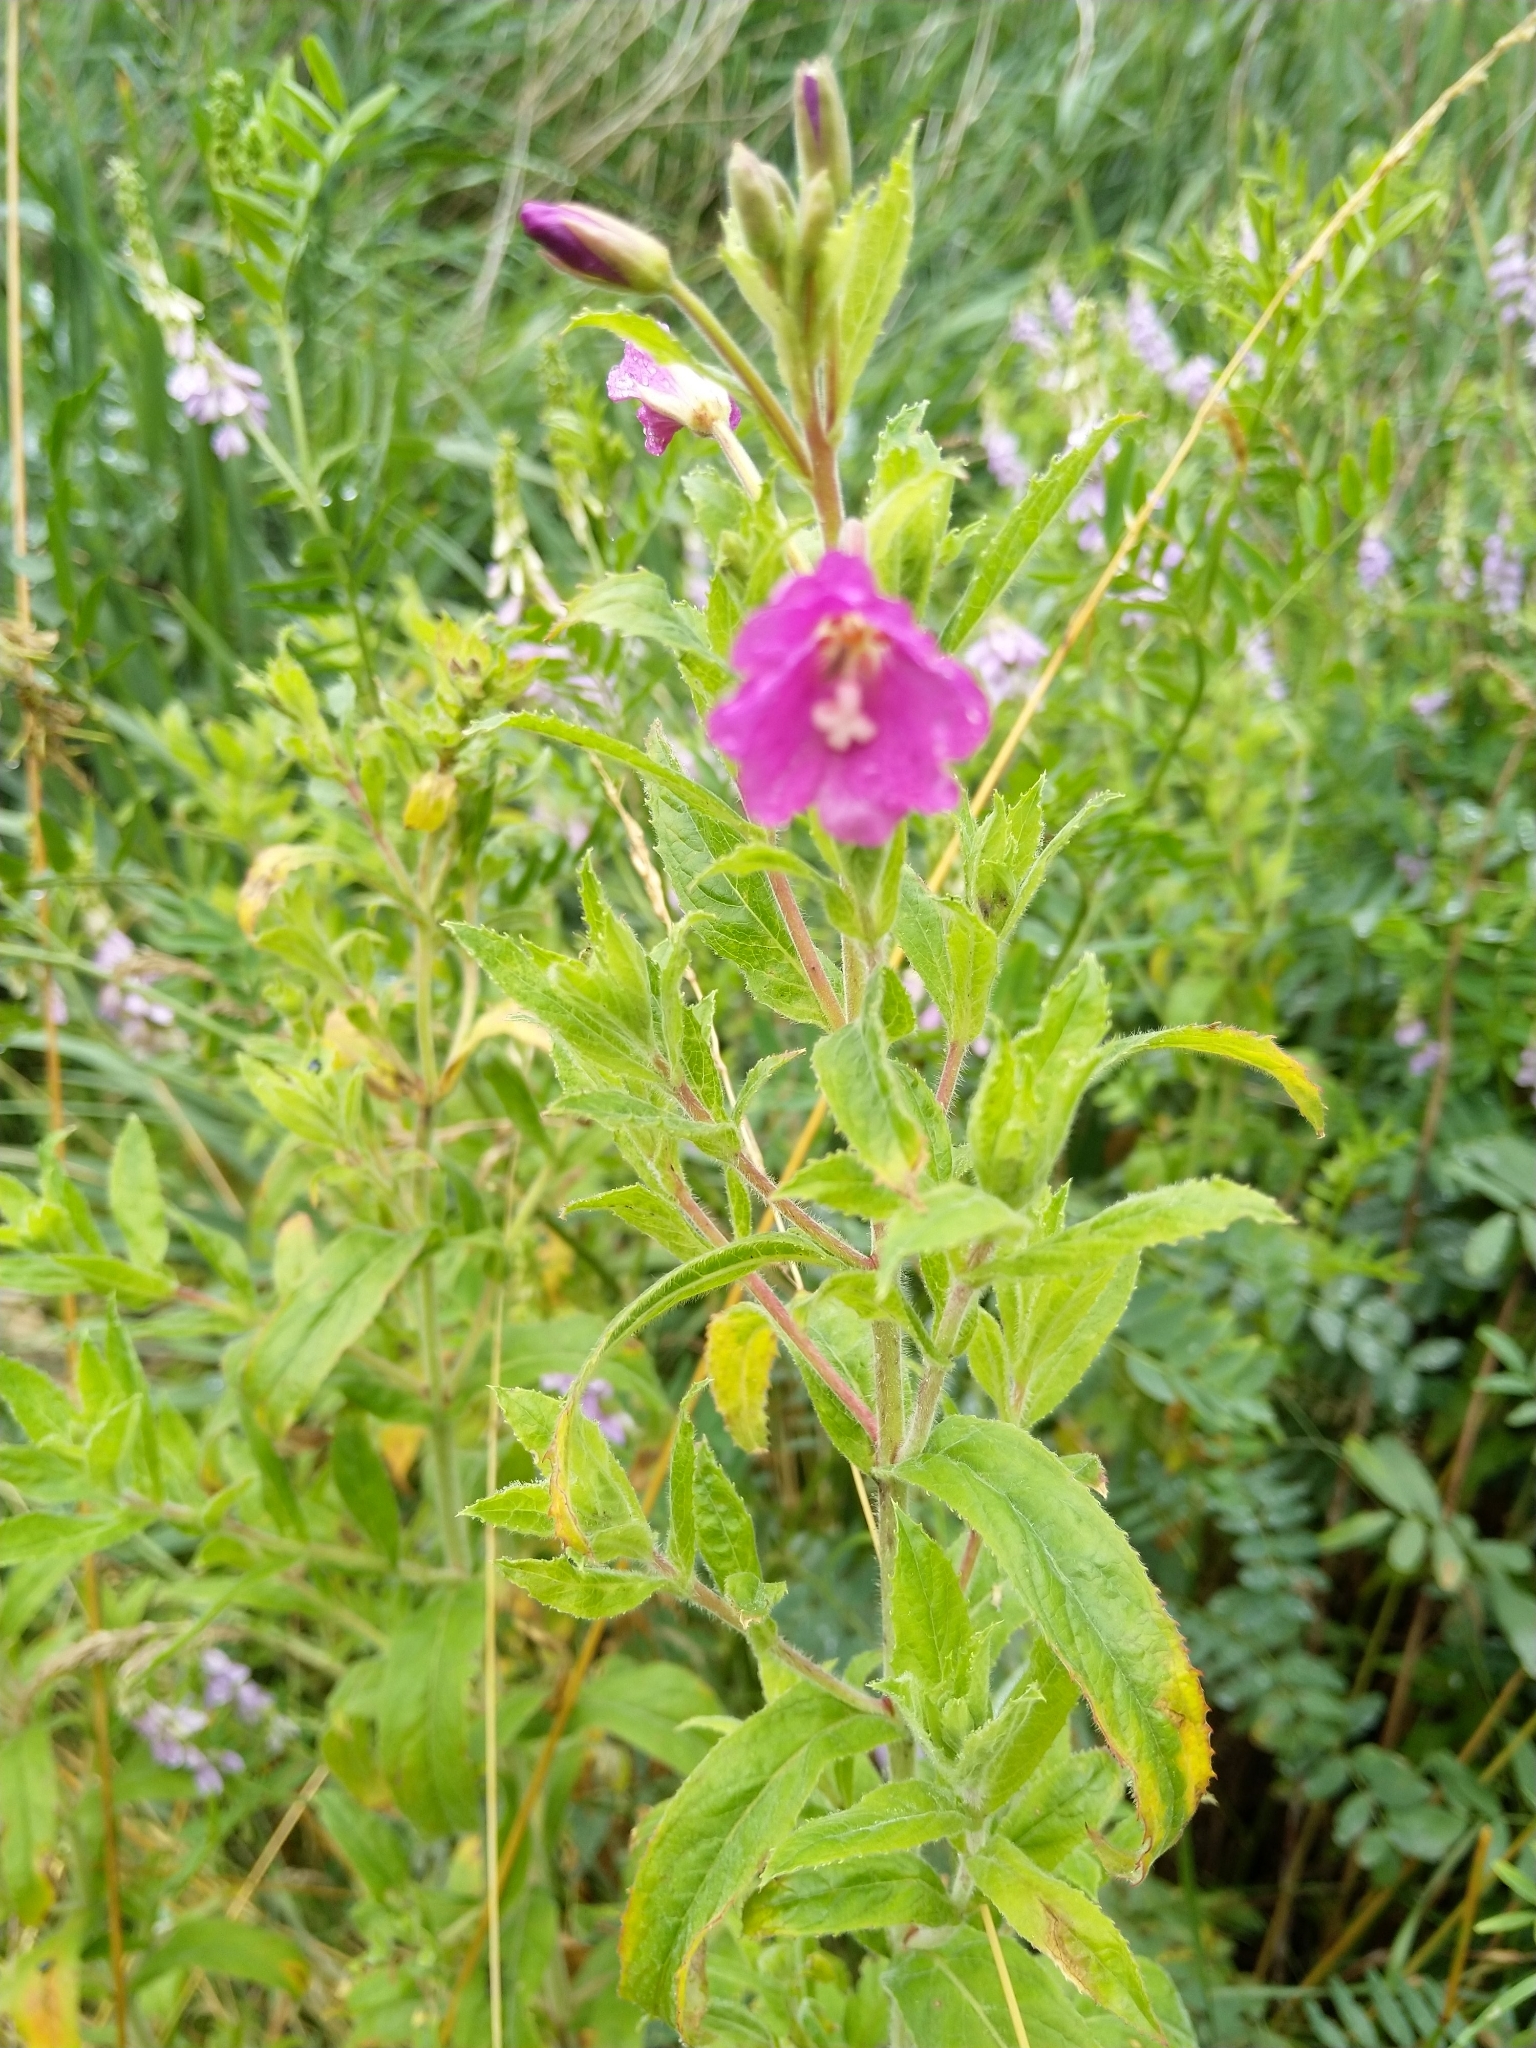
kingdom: Plantae
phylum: Tracheophyta
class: Magnoliopsida
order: Myrtales
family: Onagraceae
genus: Epilobium
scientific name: Epilobium hirsutum
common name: Great willowherb
